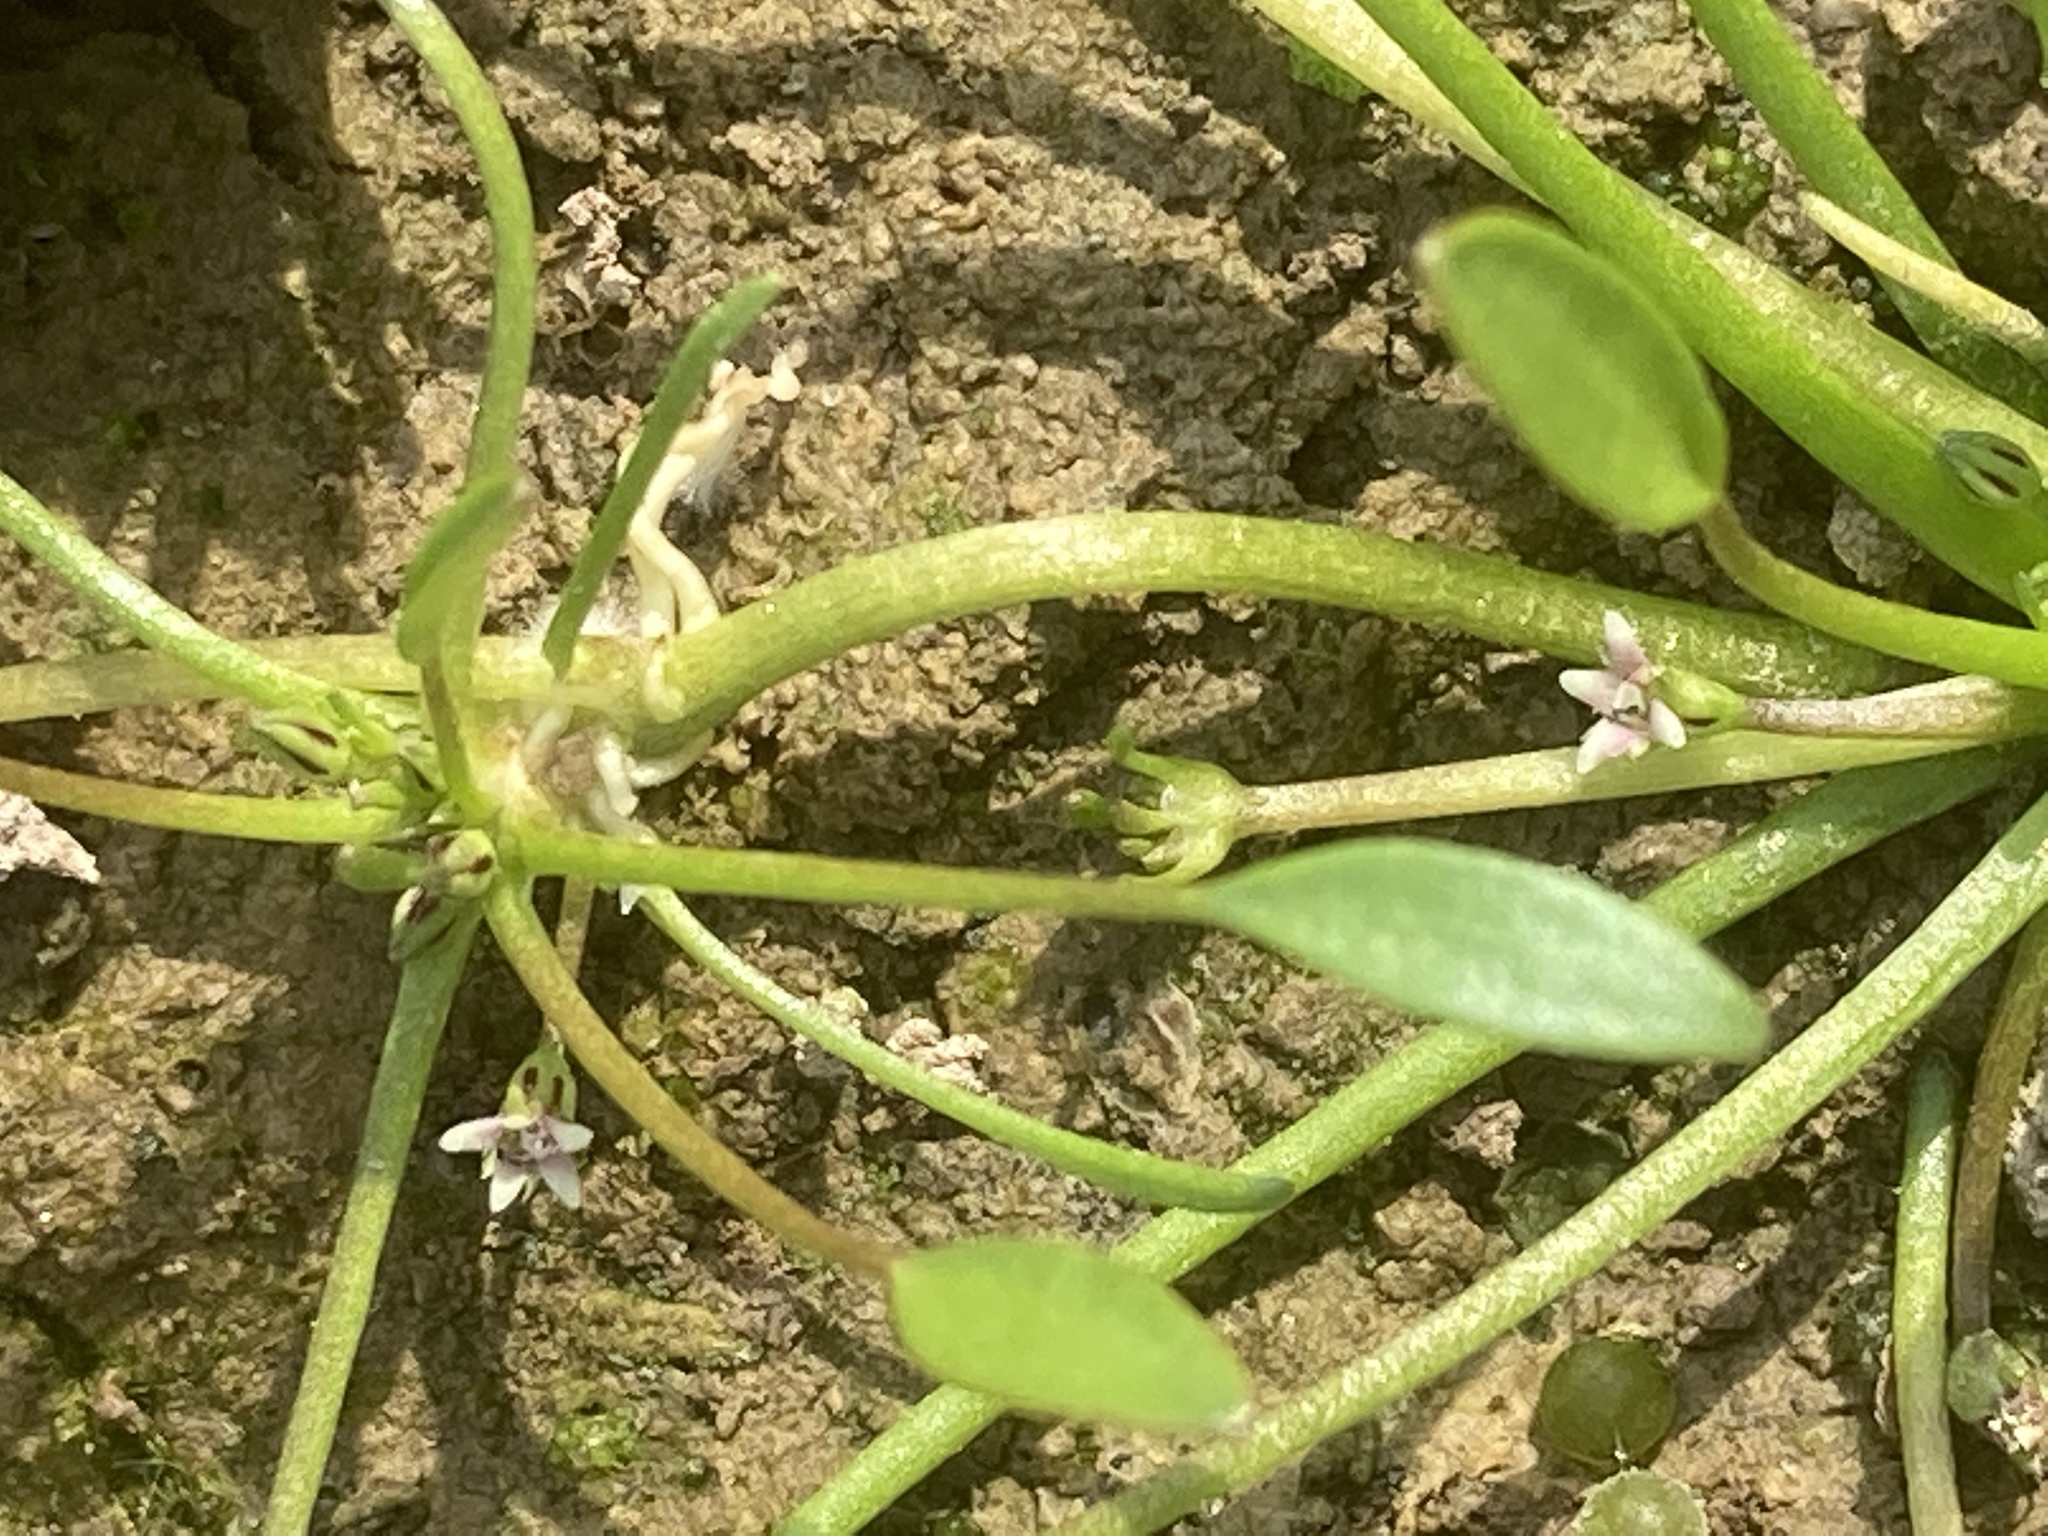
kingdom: Plantae
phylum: Tracheophyta
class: Magnoliopsida
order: Lamiales
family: Scrophulariaceae
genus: Limosella
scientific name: Limosella aquatica
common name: Mudwort
